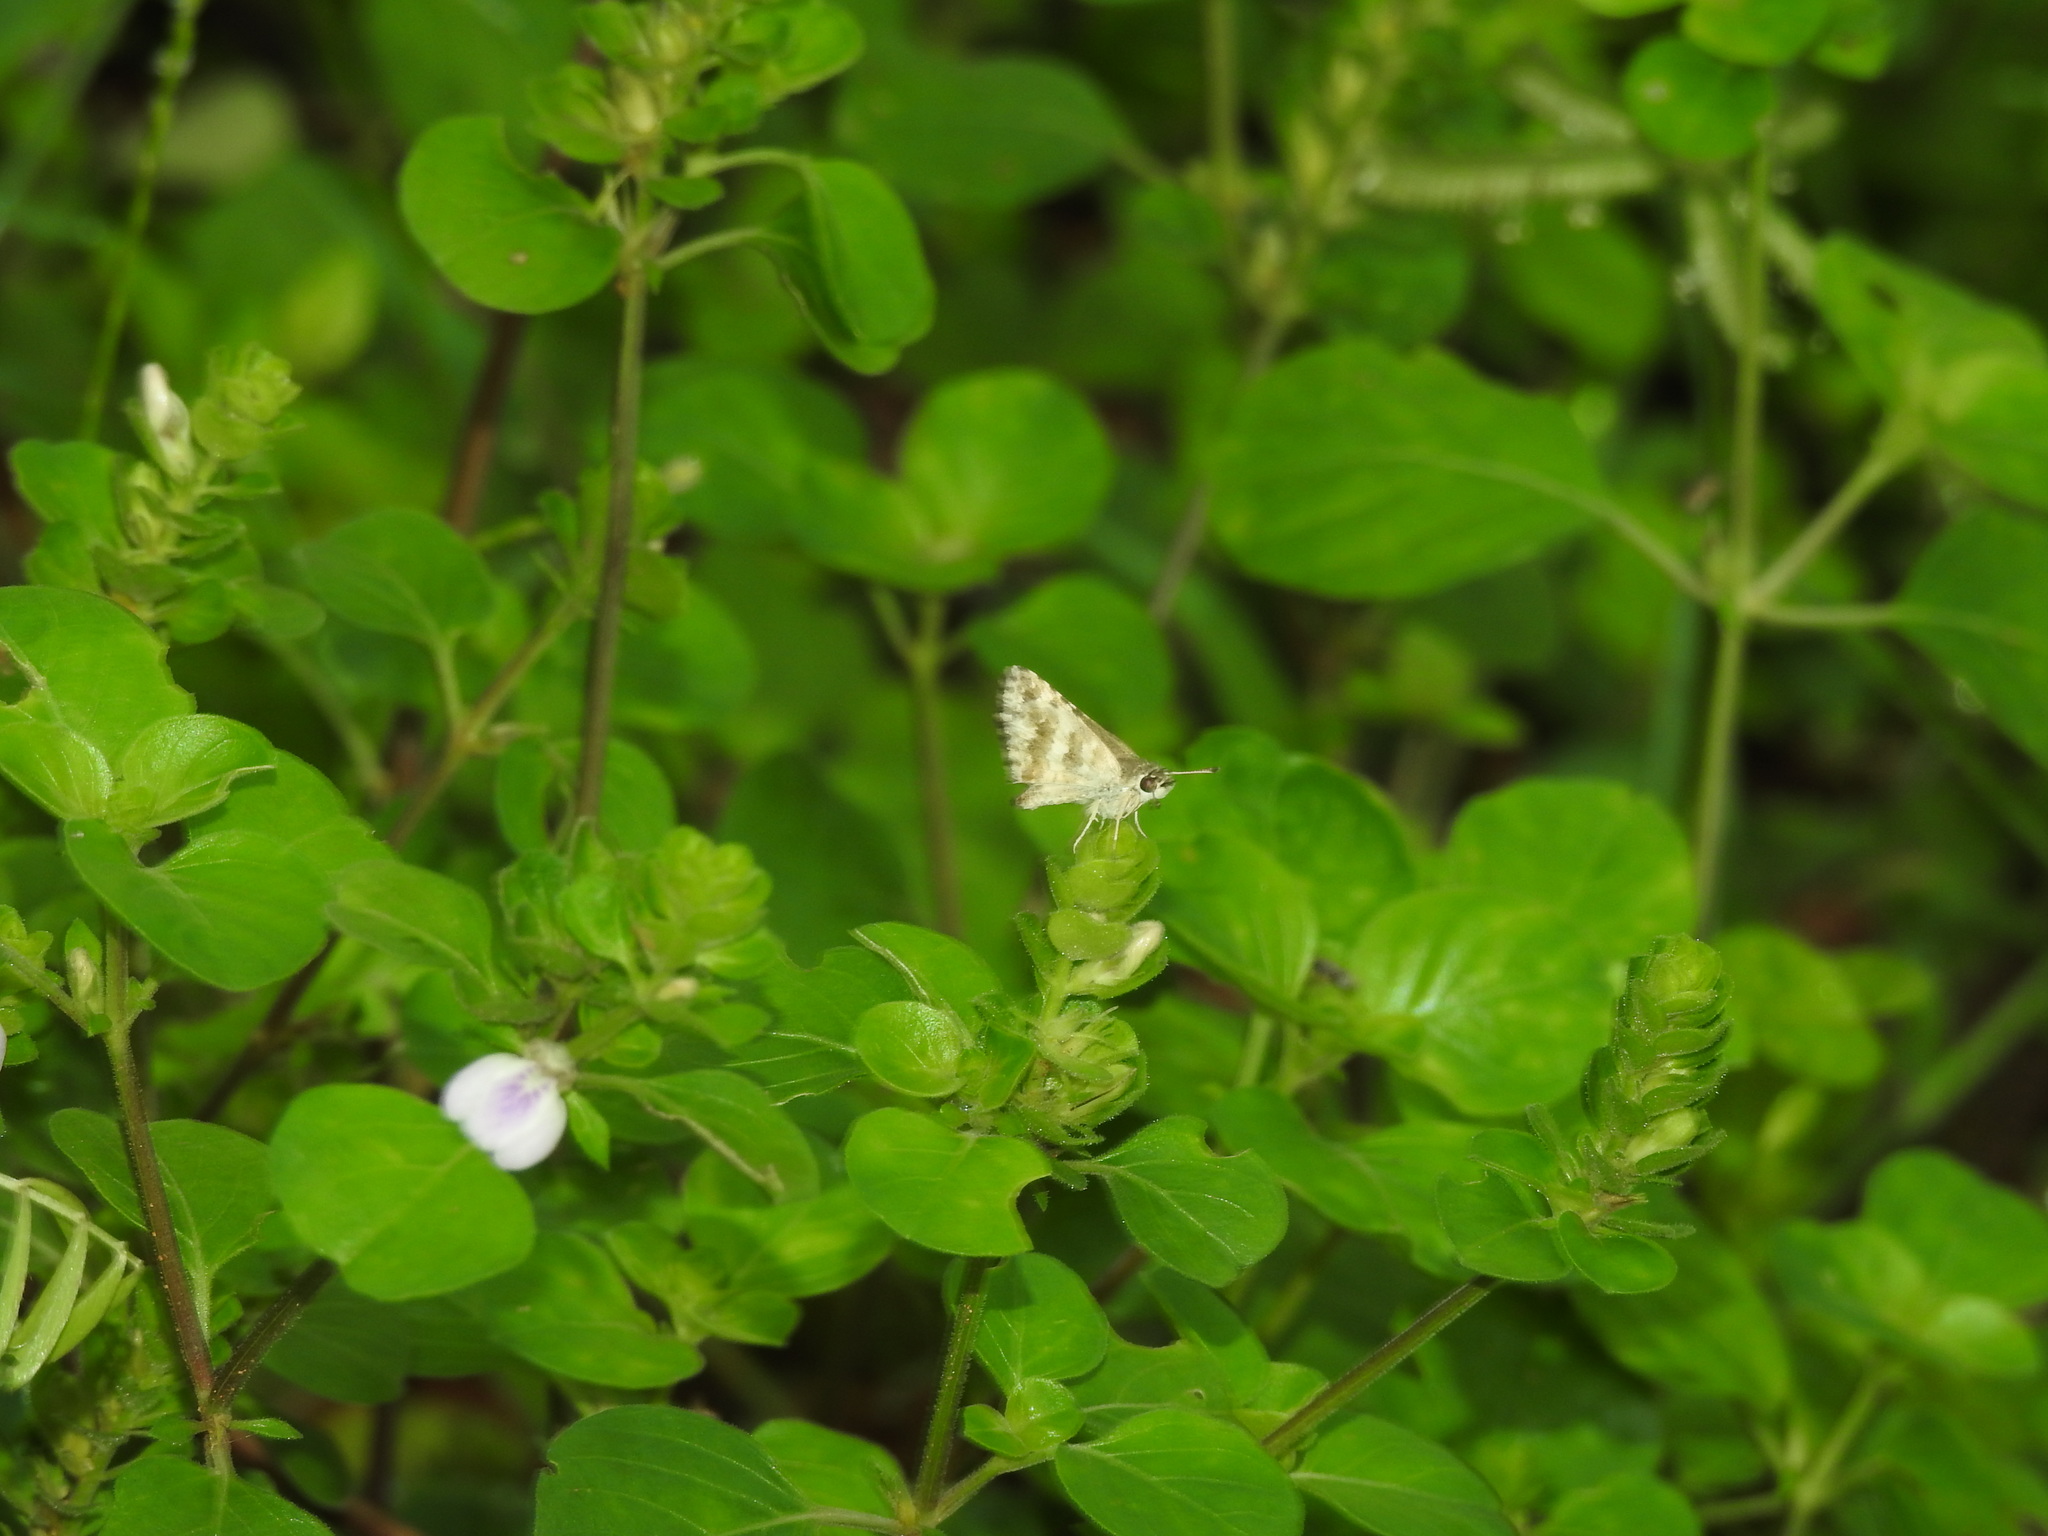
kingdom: Animalia
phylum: Arthropoda
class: Insecta
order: Lepidoptera
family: Hesperiidae
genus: Spialia
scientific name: Spialia galba
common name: Indian skipper
